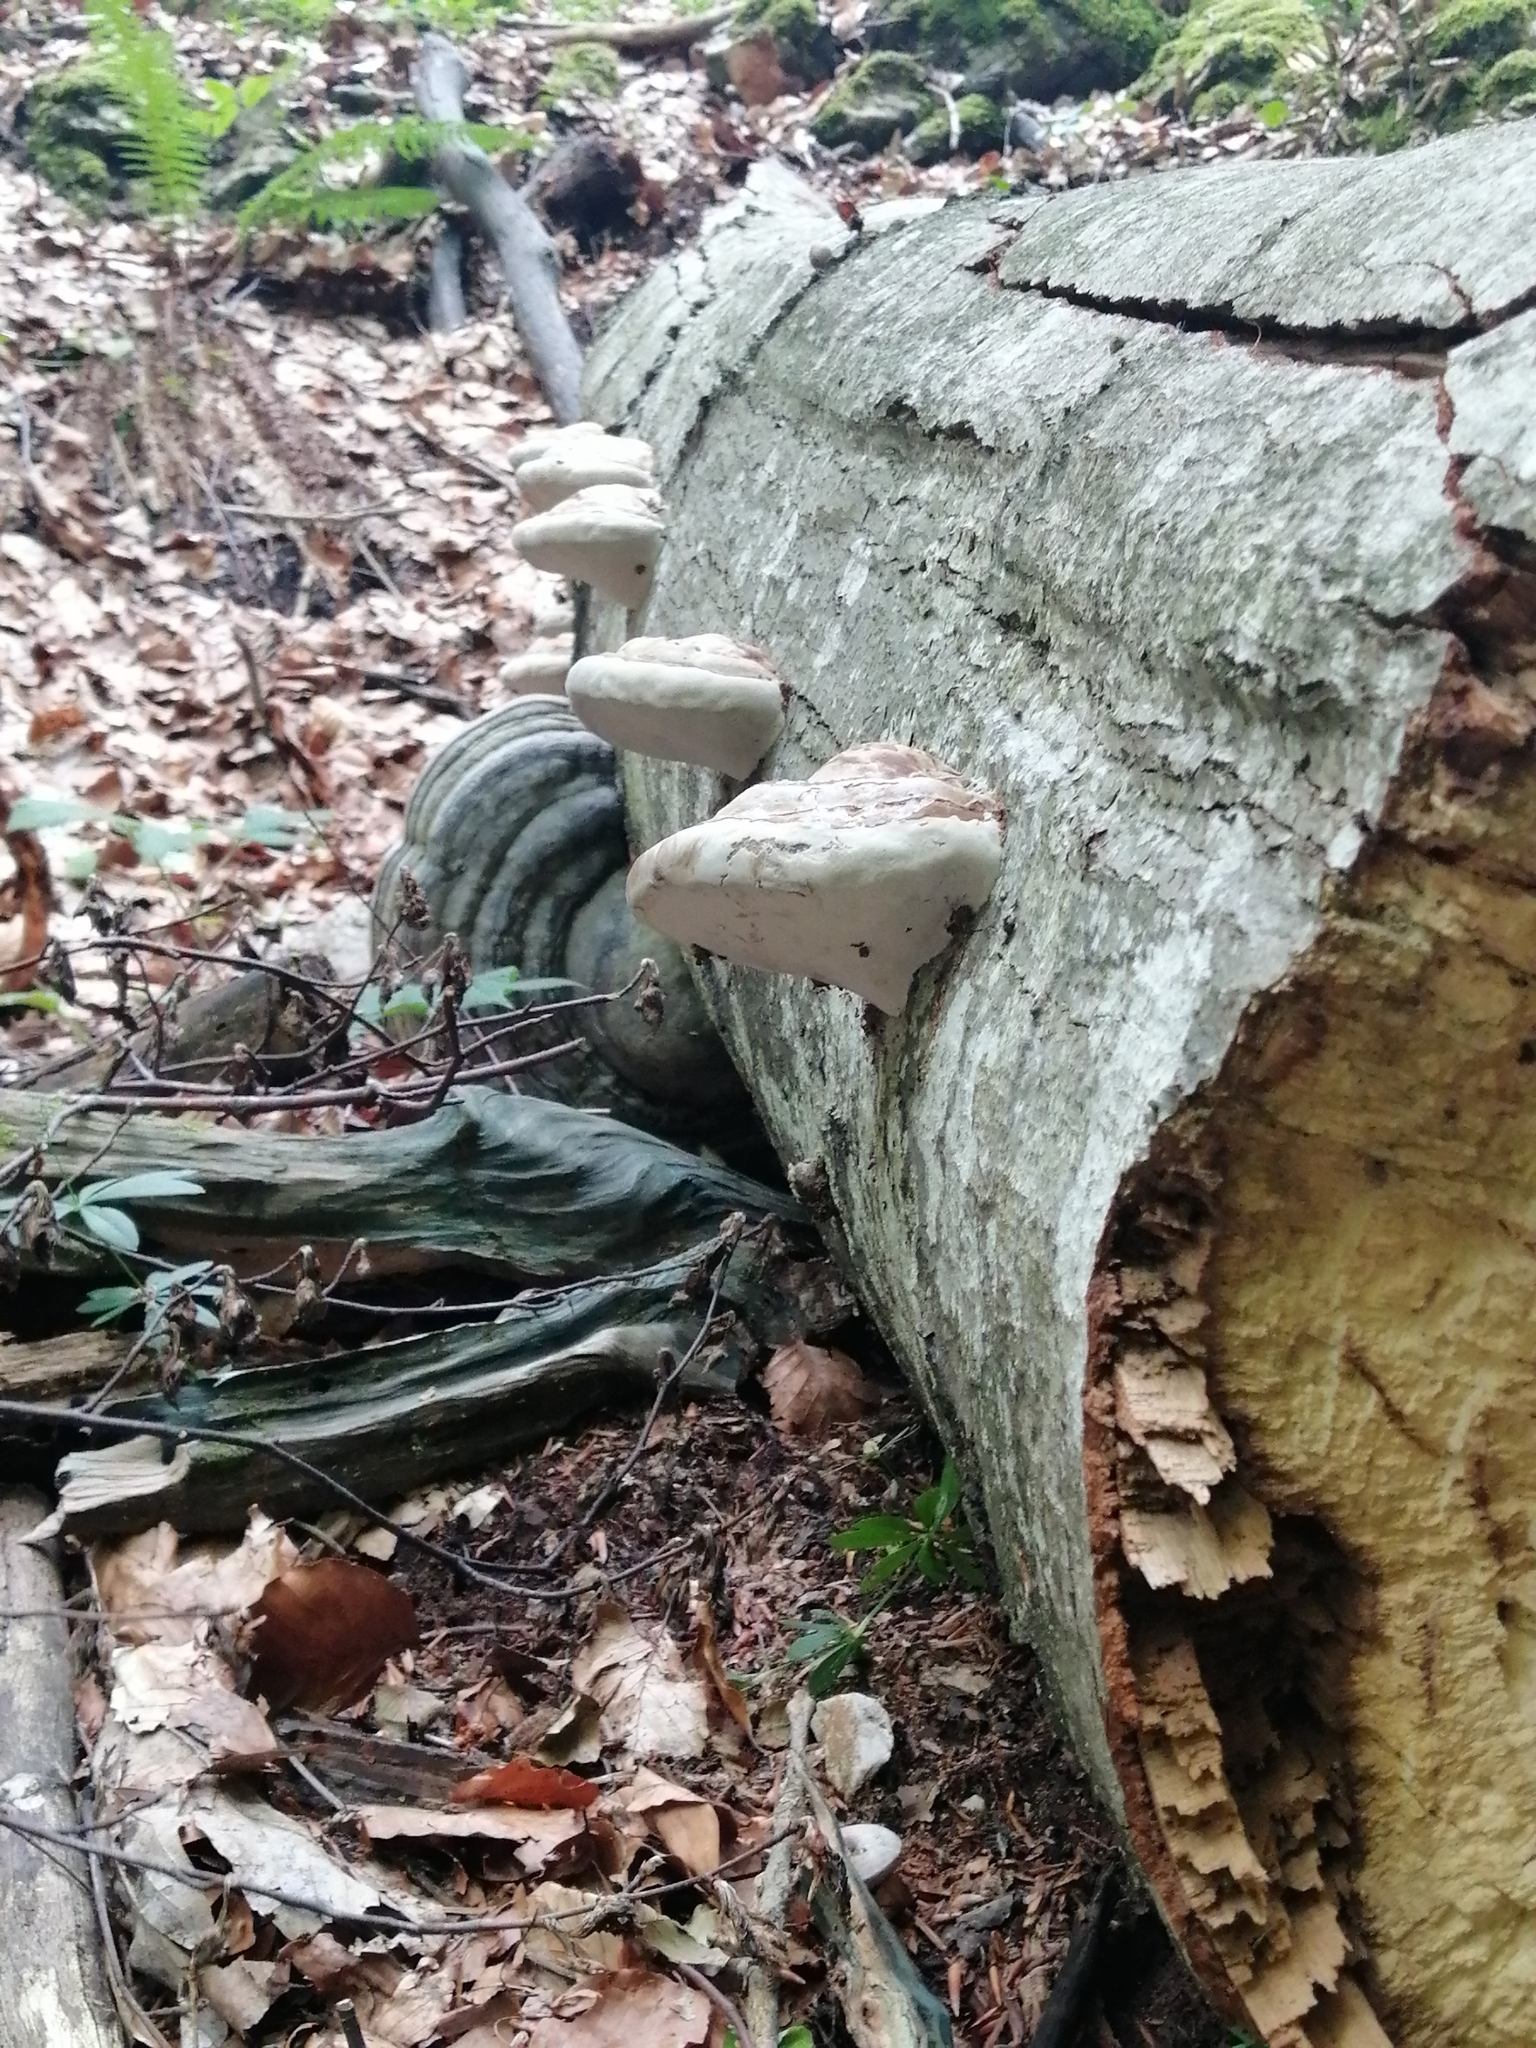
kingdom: Fungi
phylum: Basidiomycota
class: Agaricomycetes
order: Polyporales
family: Polyporaceae
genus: Fomes
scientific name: Fomes fomentarius
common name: Hoof fungus
